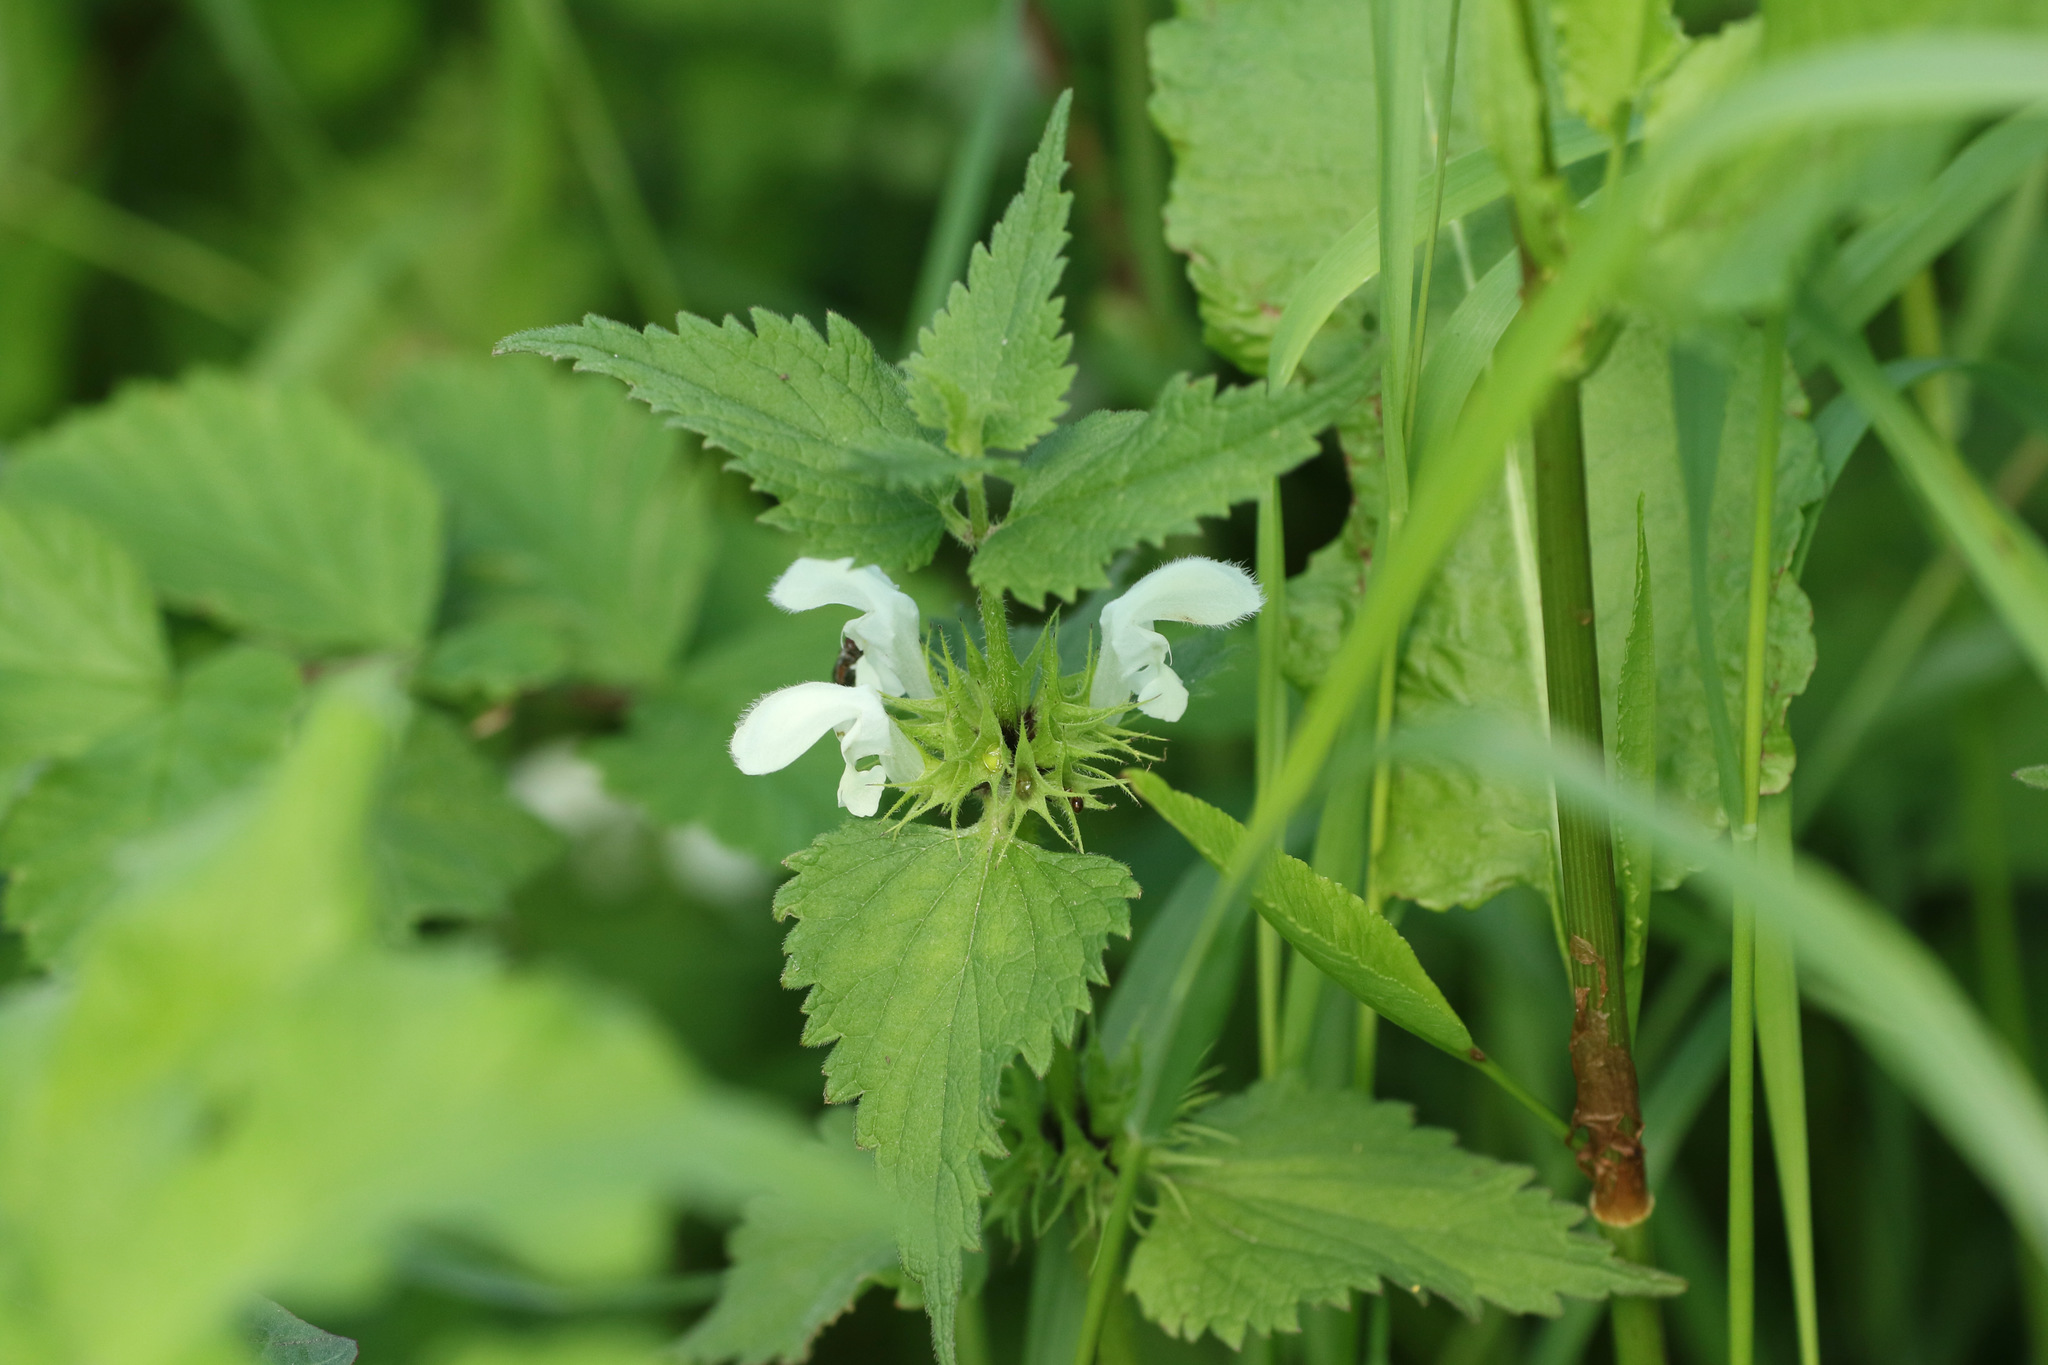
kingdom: Plantae
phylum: Tracheophyta
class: Magnoliopsida
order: Lamiales
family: Lamiaceae
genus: Lamium
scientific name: Lamium album
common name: White dead-nettle
